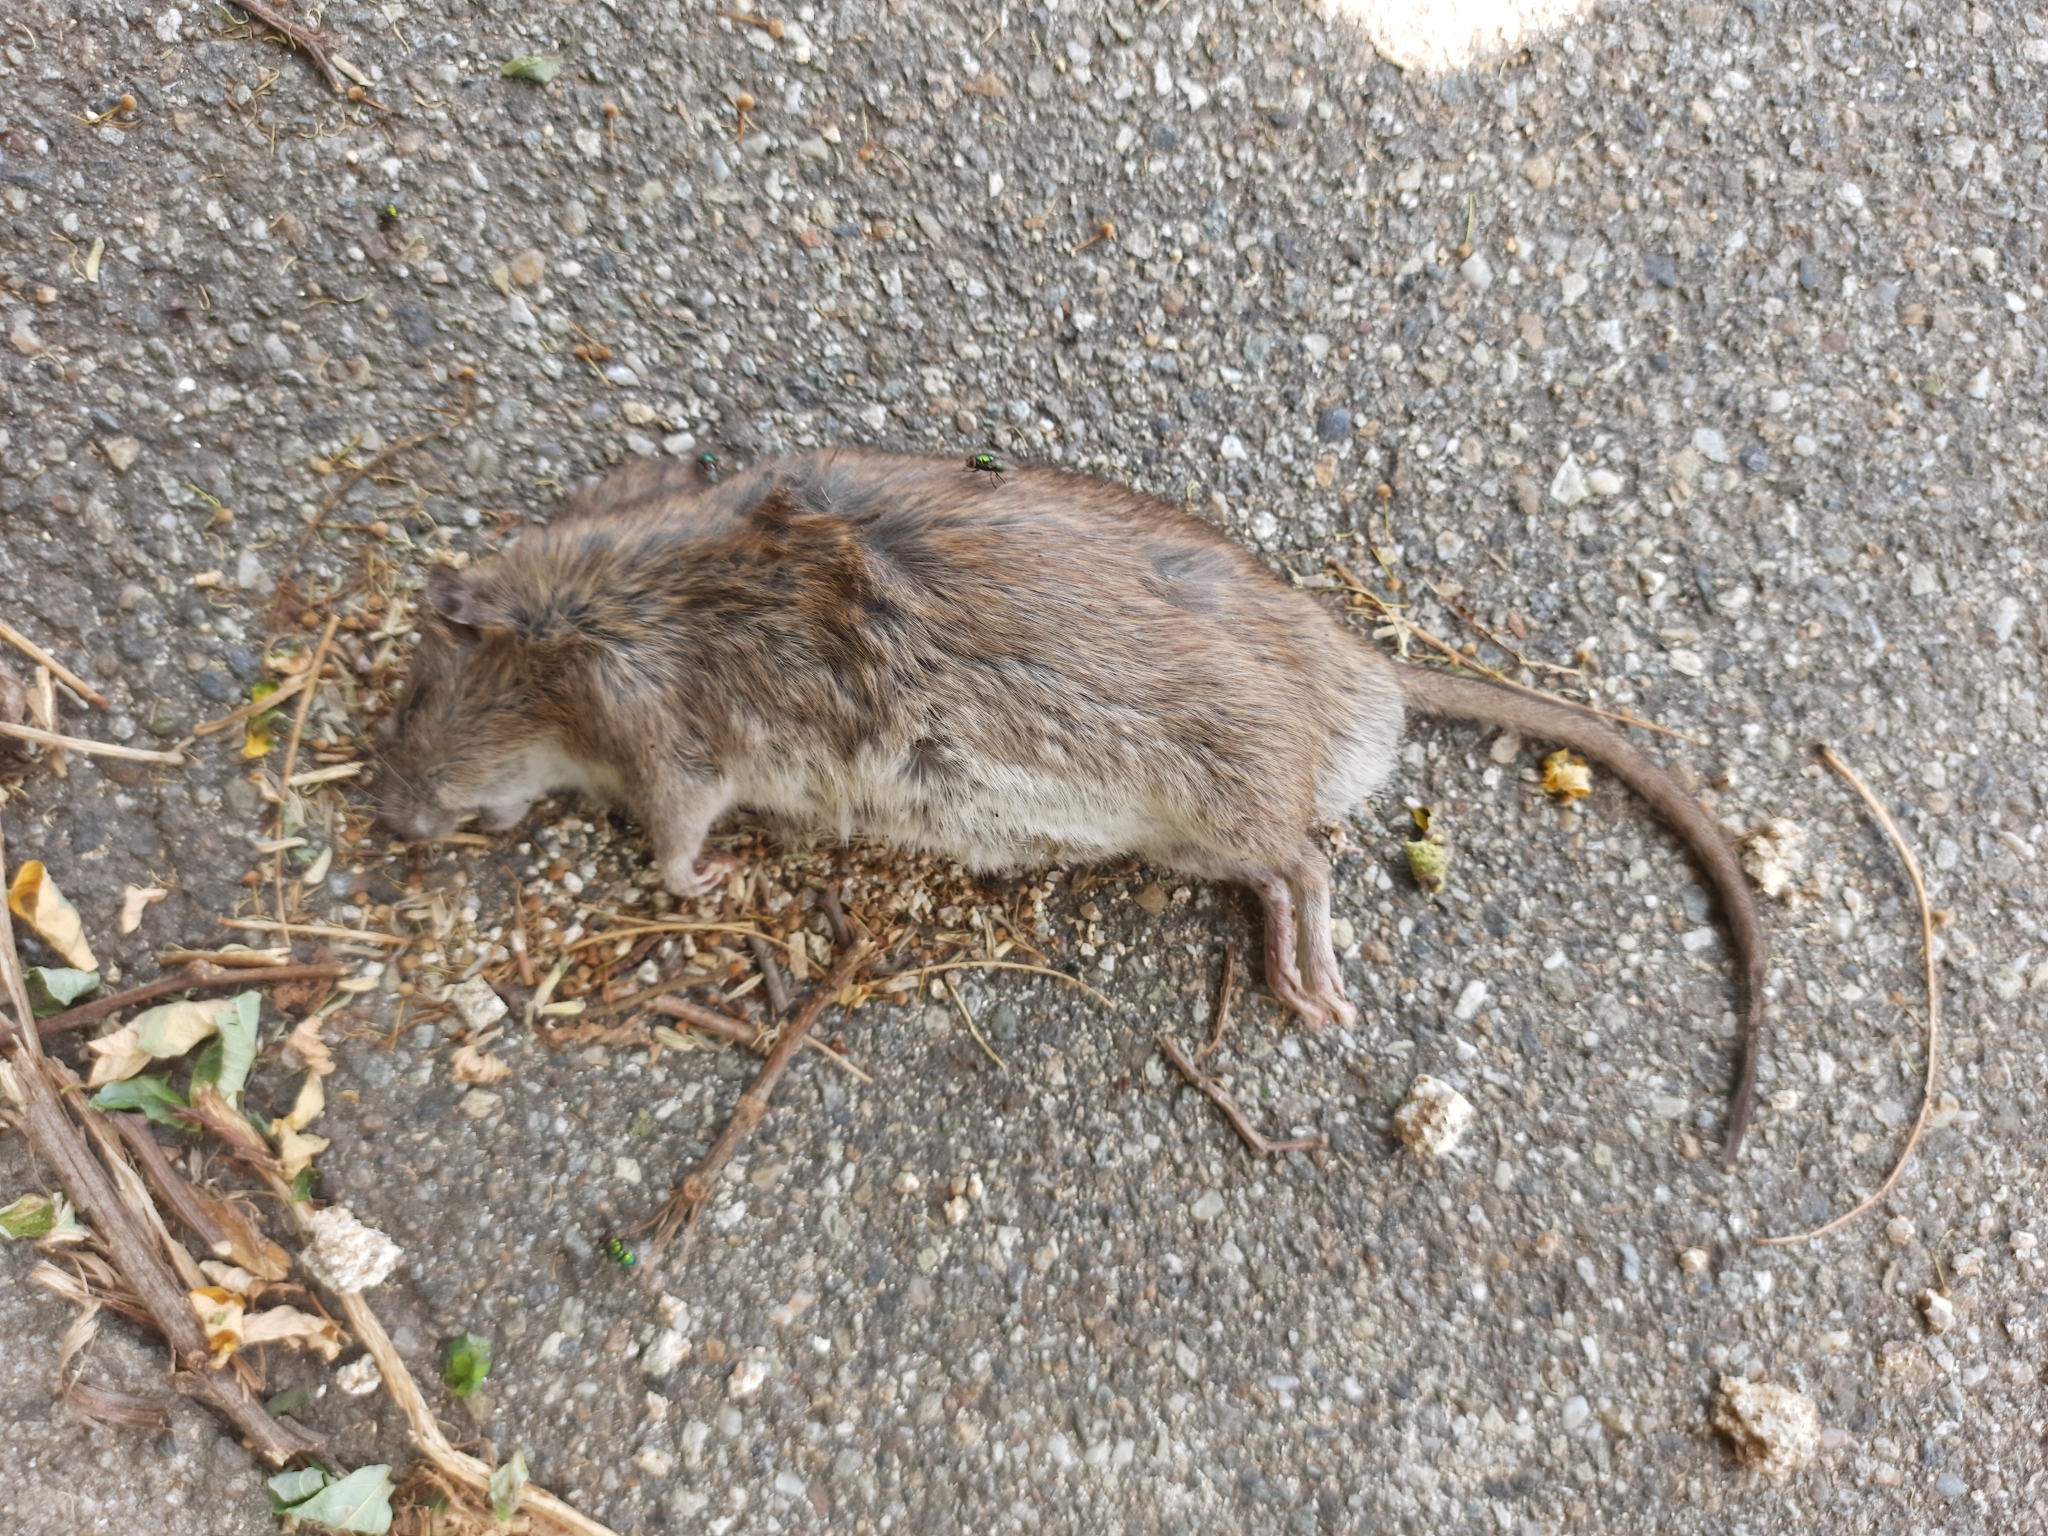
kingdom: Animalia
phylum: Chordata
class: Mammalia
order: Rodentia
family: Muridae
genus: Rattus
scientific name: Rattus norvegicus
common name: Brown rat
